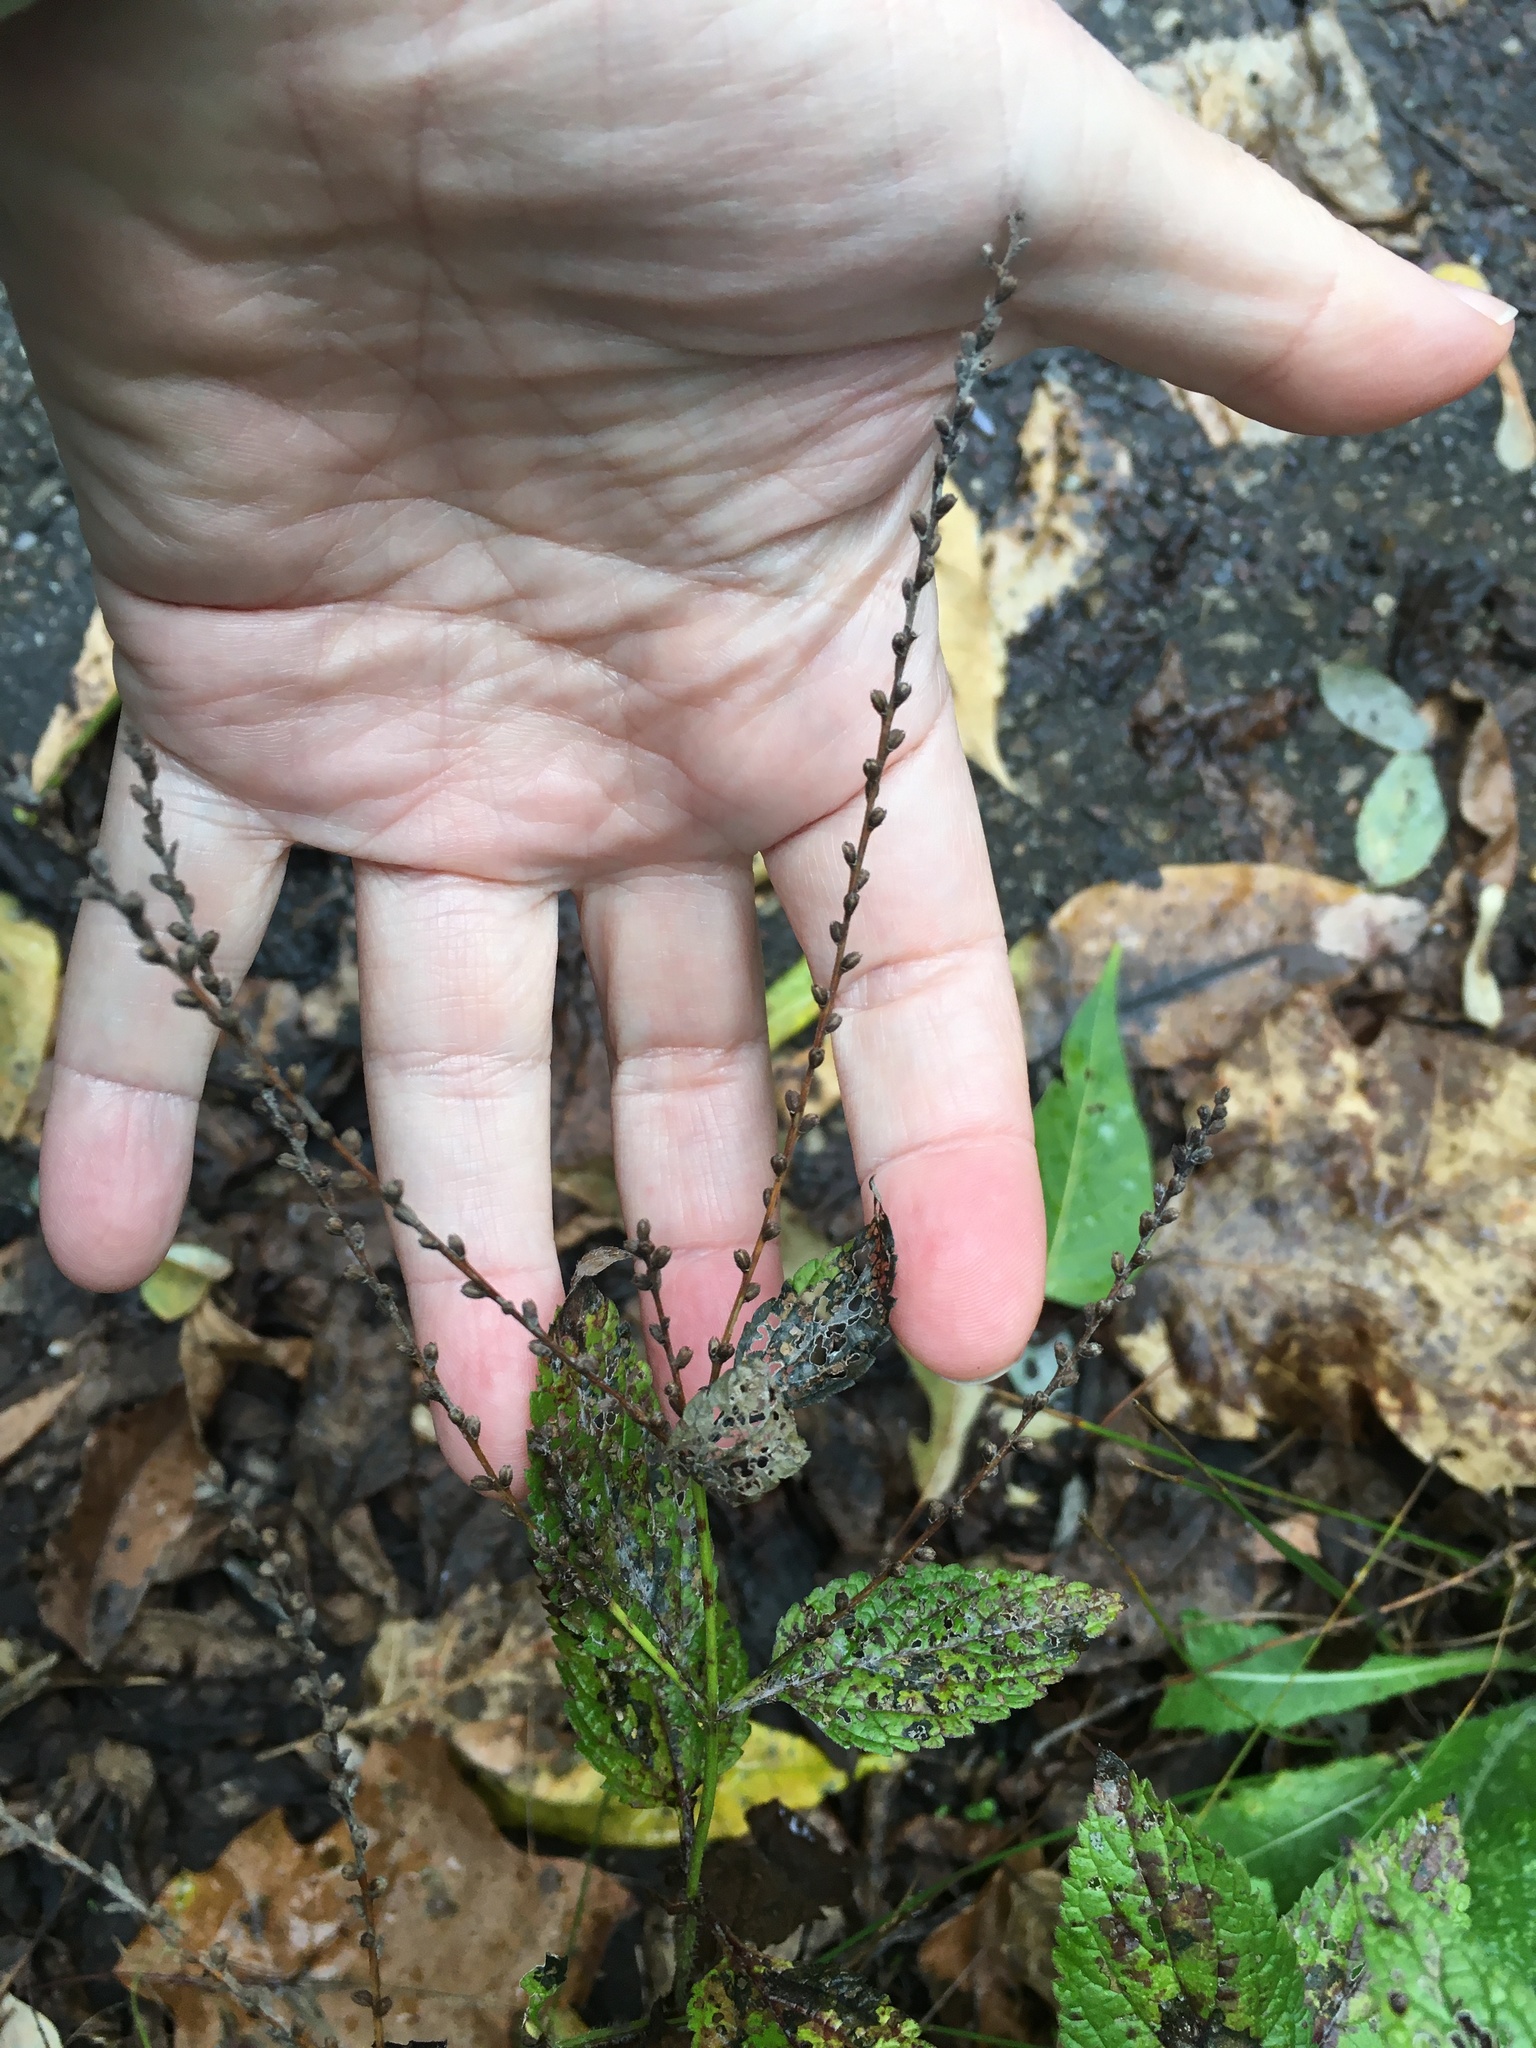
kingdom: Plantae
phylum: Tracheophyta
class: Magnoliopsida
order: Lamiales
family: Verbenaceae
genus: Verbena
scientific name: Verbena urticifolia
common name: Nettle-leaved vervain
